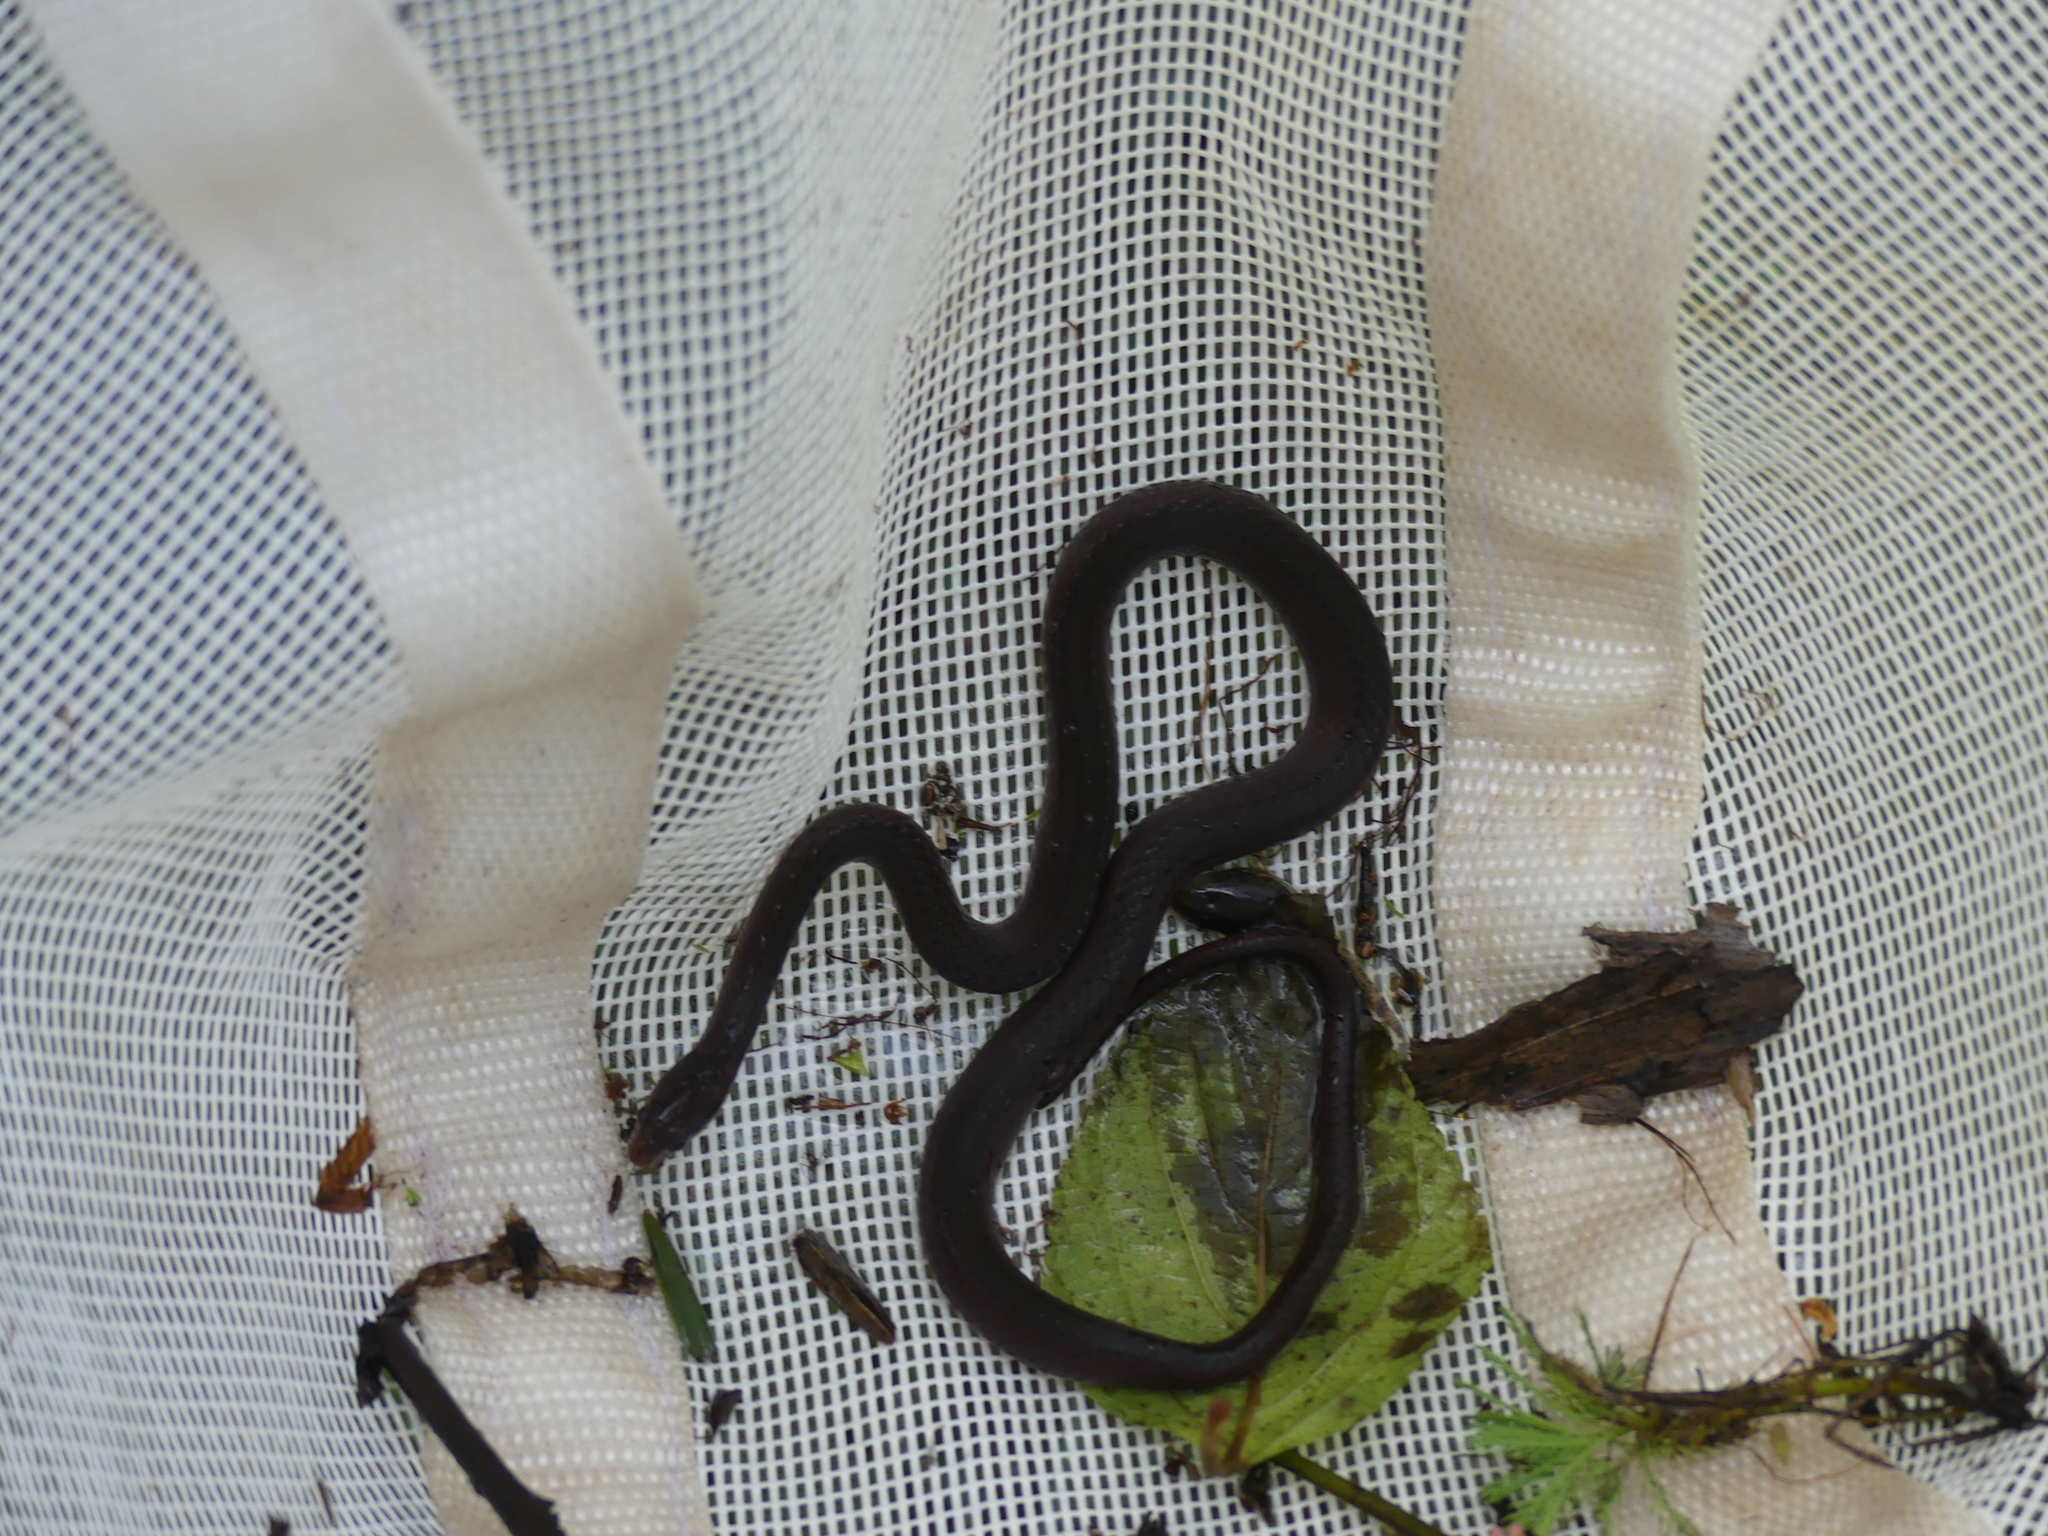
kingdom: Animalia
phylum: Chordata
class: Squamata
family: Colubridae
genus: Natriciteres
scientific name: Natriciteres olivacea
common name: Olive marsh snake
